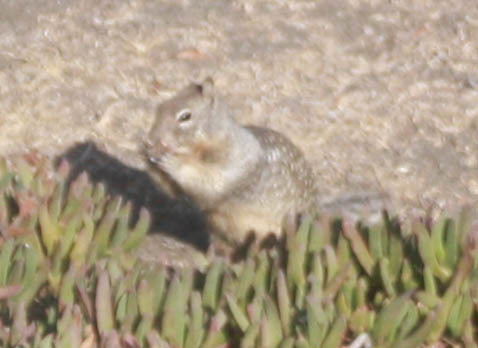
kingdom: Animalia
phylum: Chordata
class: Mammalia
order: Rodentia
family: Sciuridae
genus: Otospermophilus
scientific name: Otospermophilus beecheyi
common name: California ground squirrel
